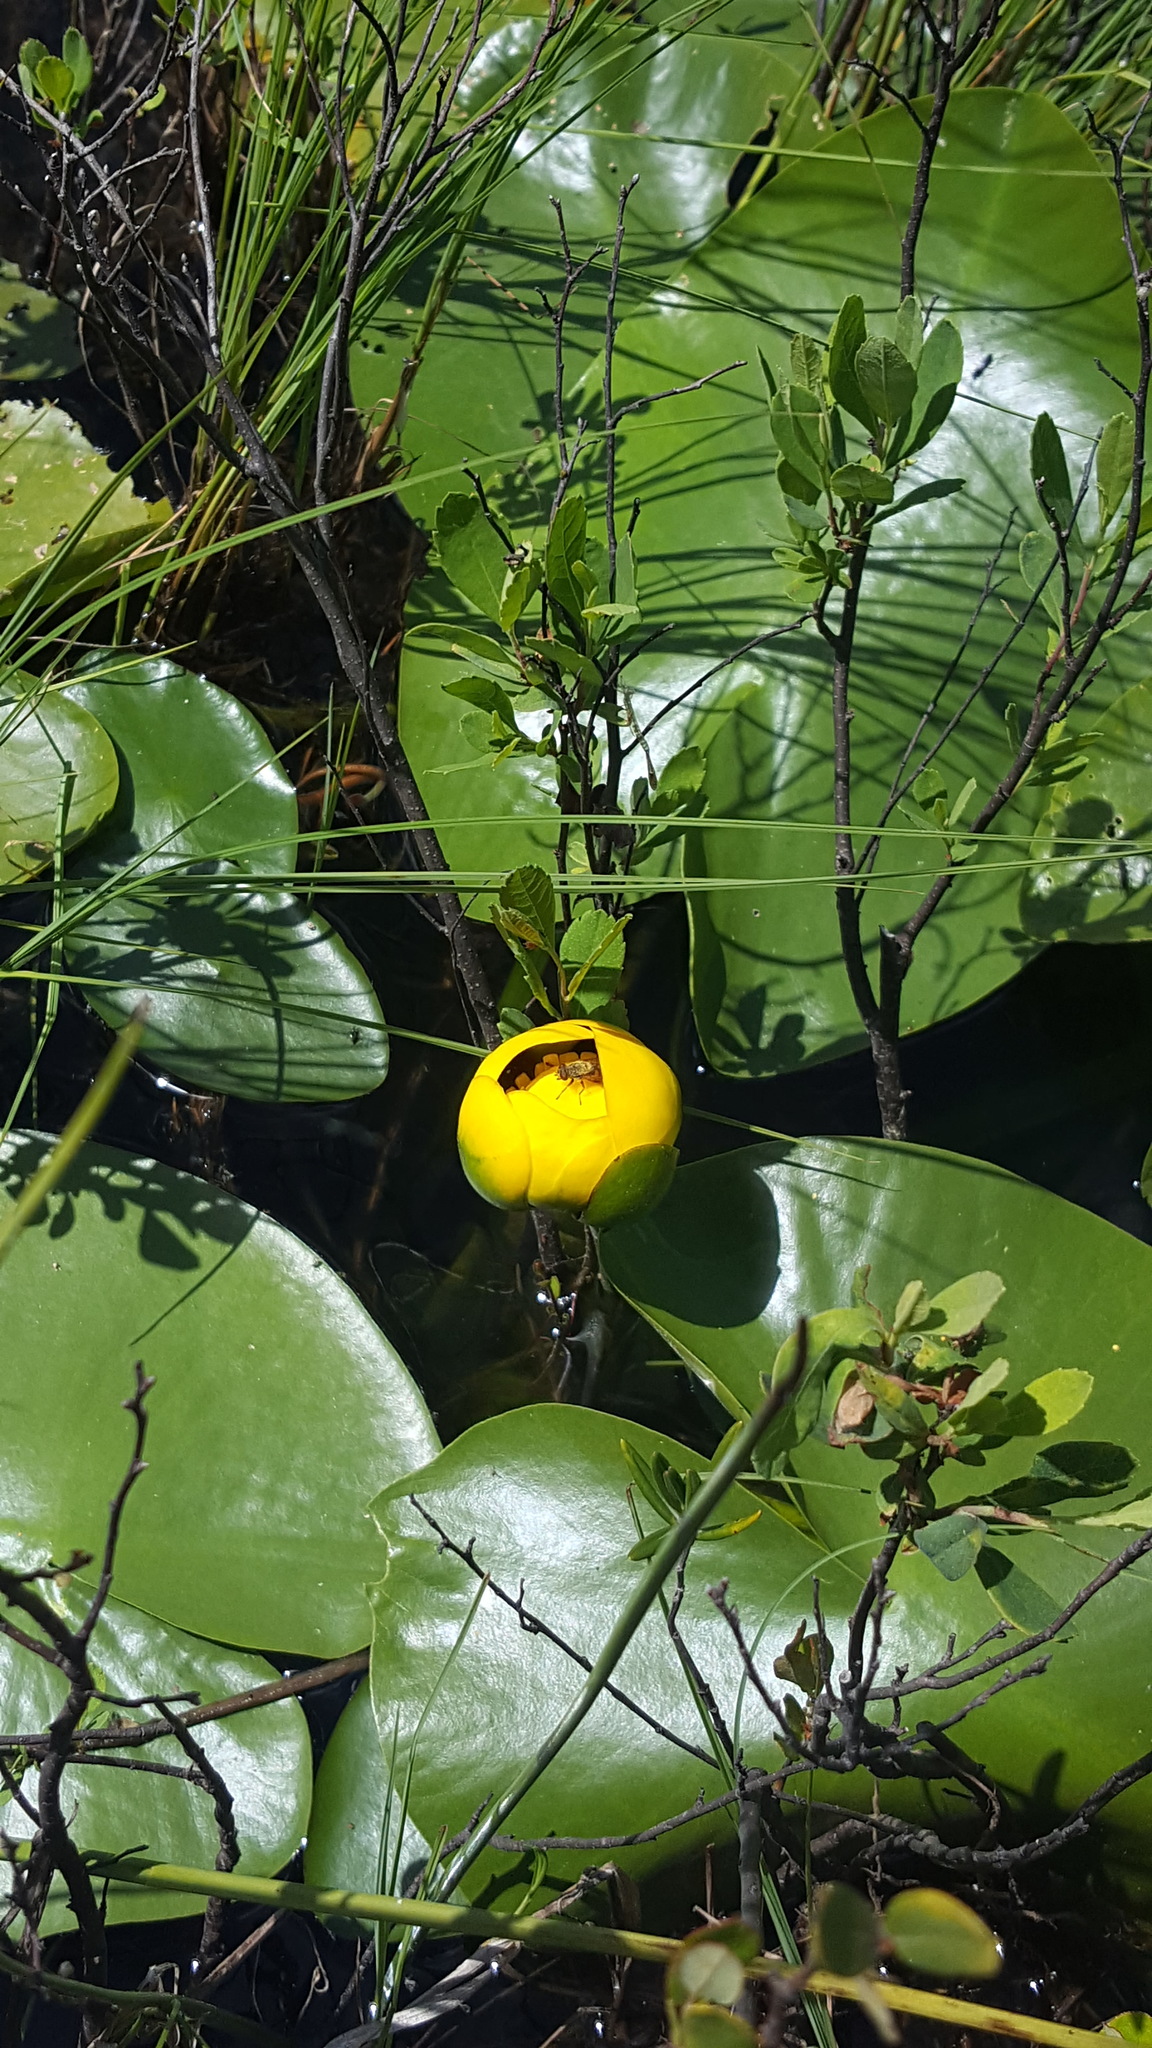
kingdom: Plantae
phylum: Tracheophyta
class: Magnoliopsida
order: Nymphaeales
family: Nymphaeaceae
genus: Nuphar
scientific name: Nuphar variegata
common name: Beaver-root
